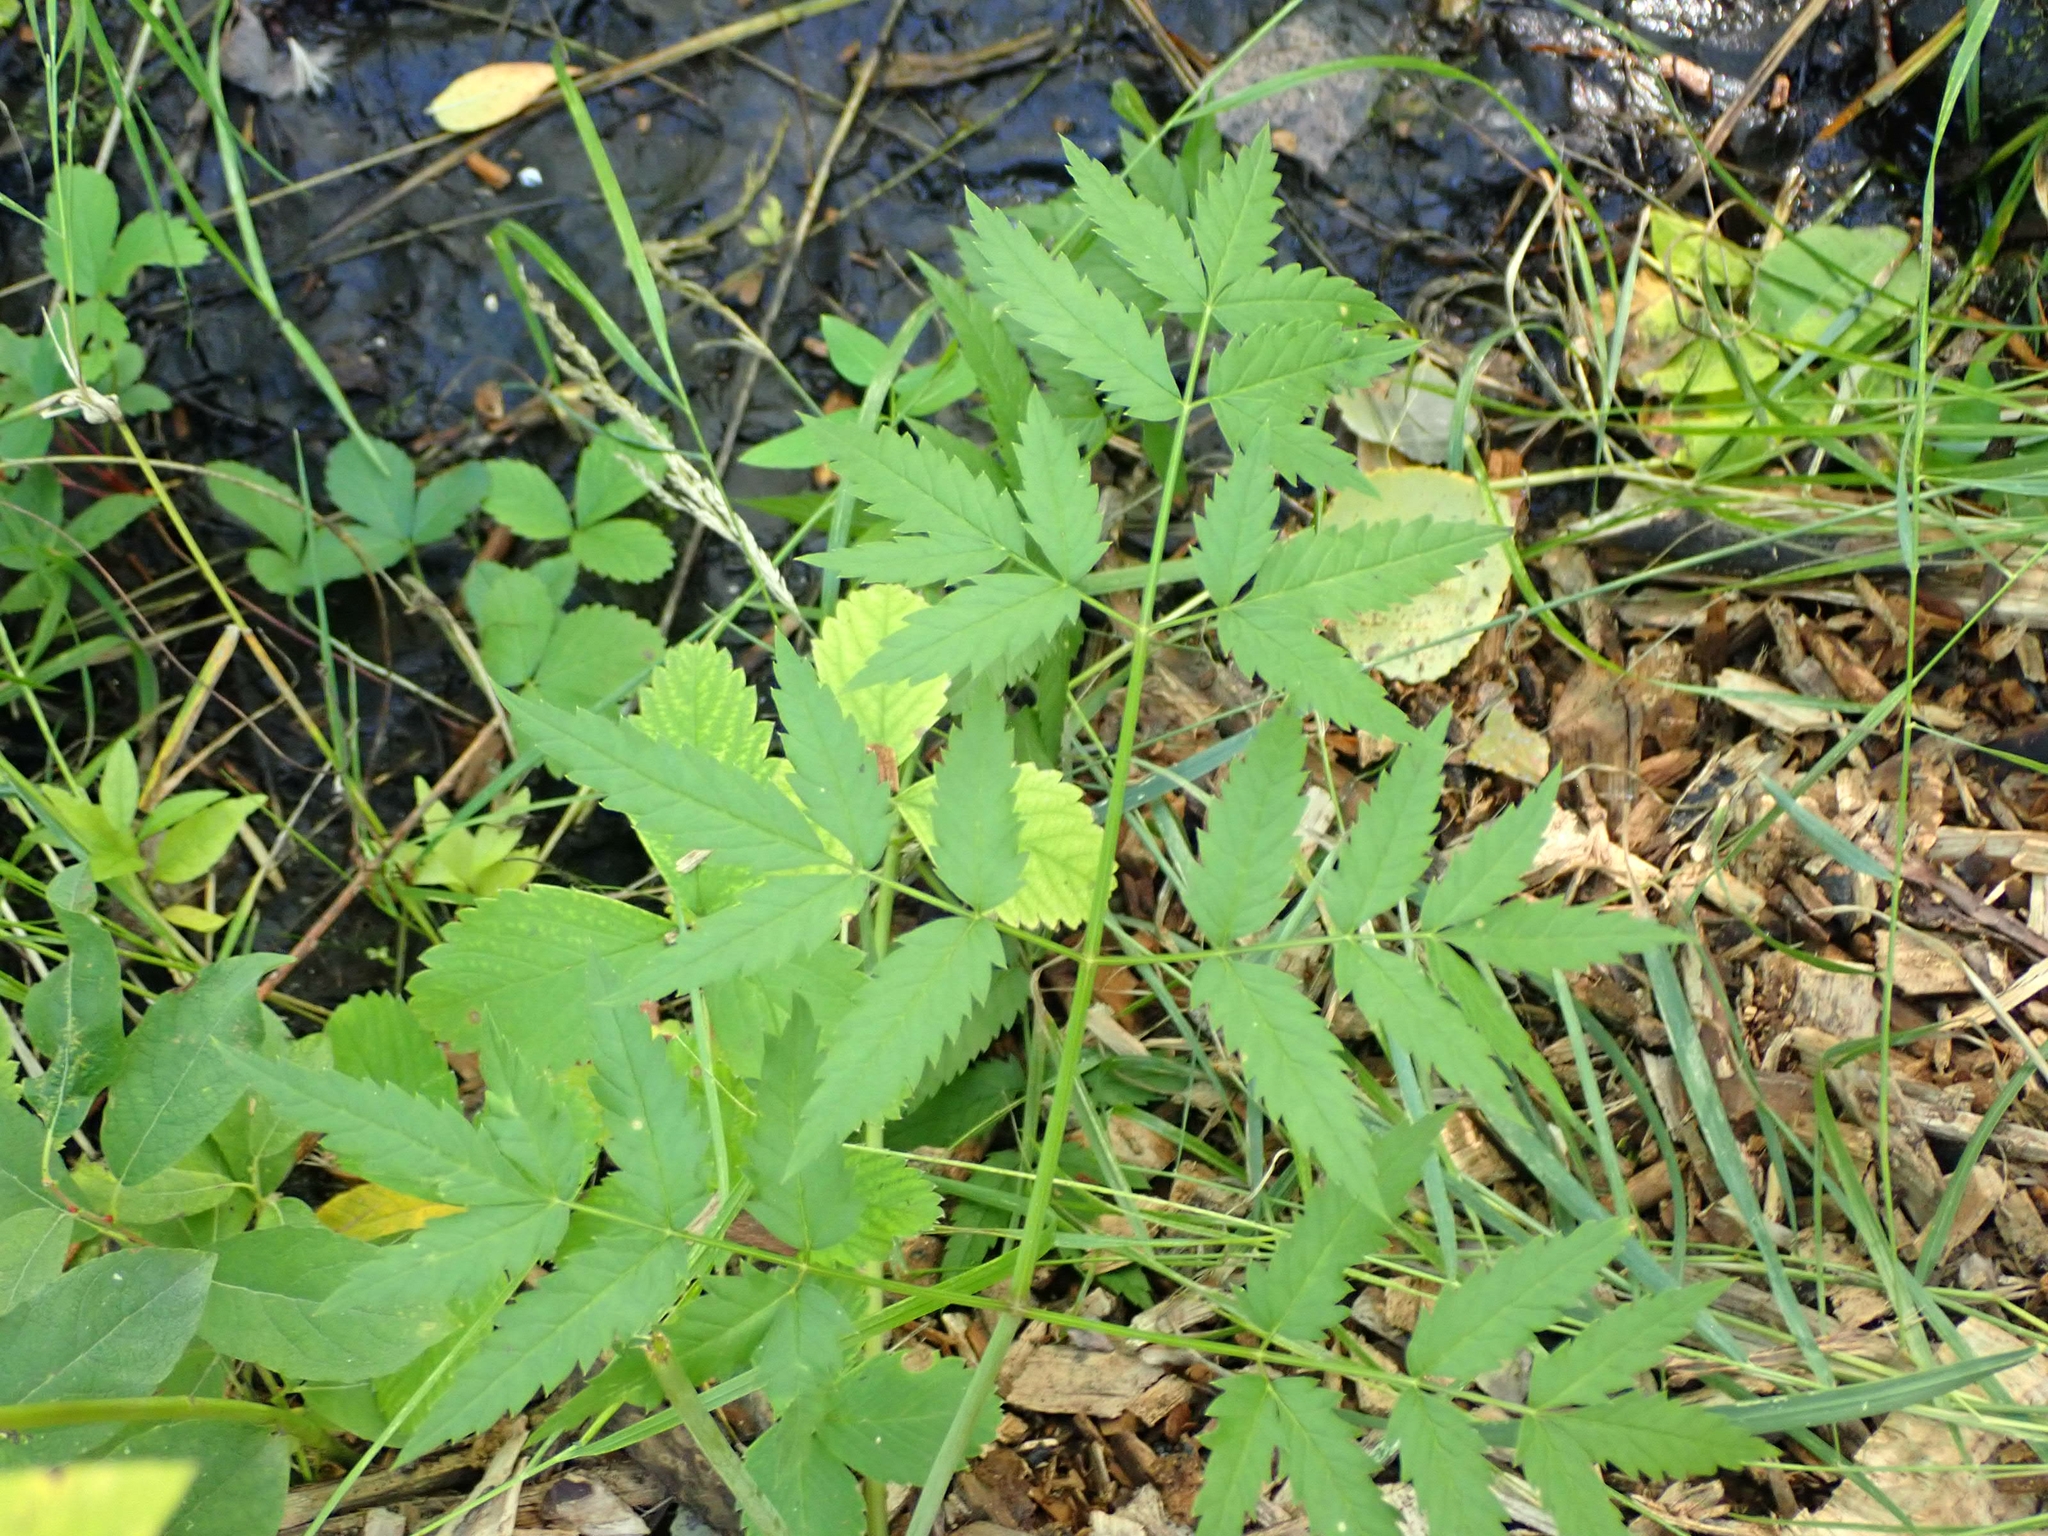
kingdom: Plantae
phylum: Tracheophyta
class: Magnoliopsida
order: Apiales
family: Apiaceae
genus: Cicuta
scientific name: Cicuta maculata
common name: Spotted cowbane
